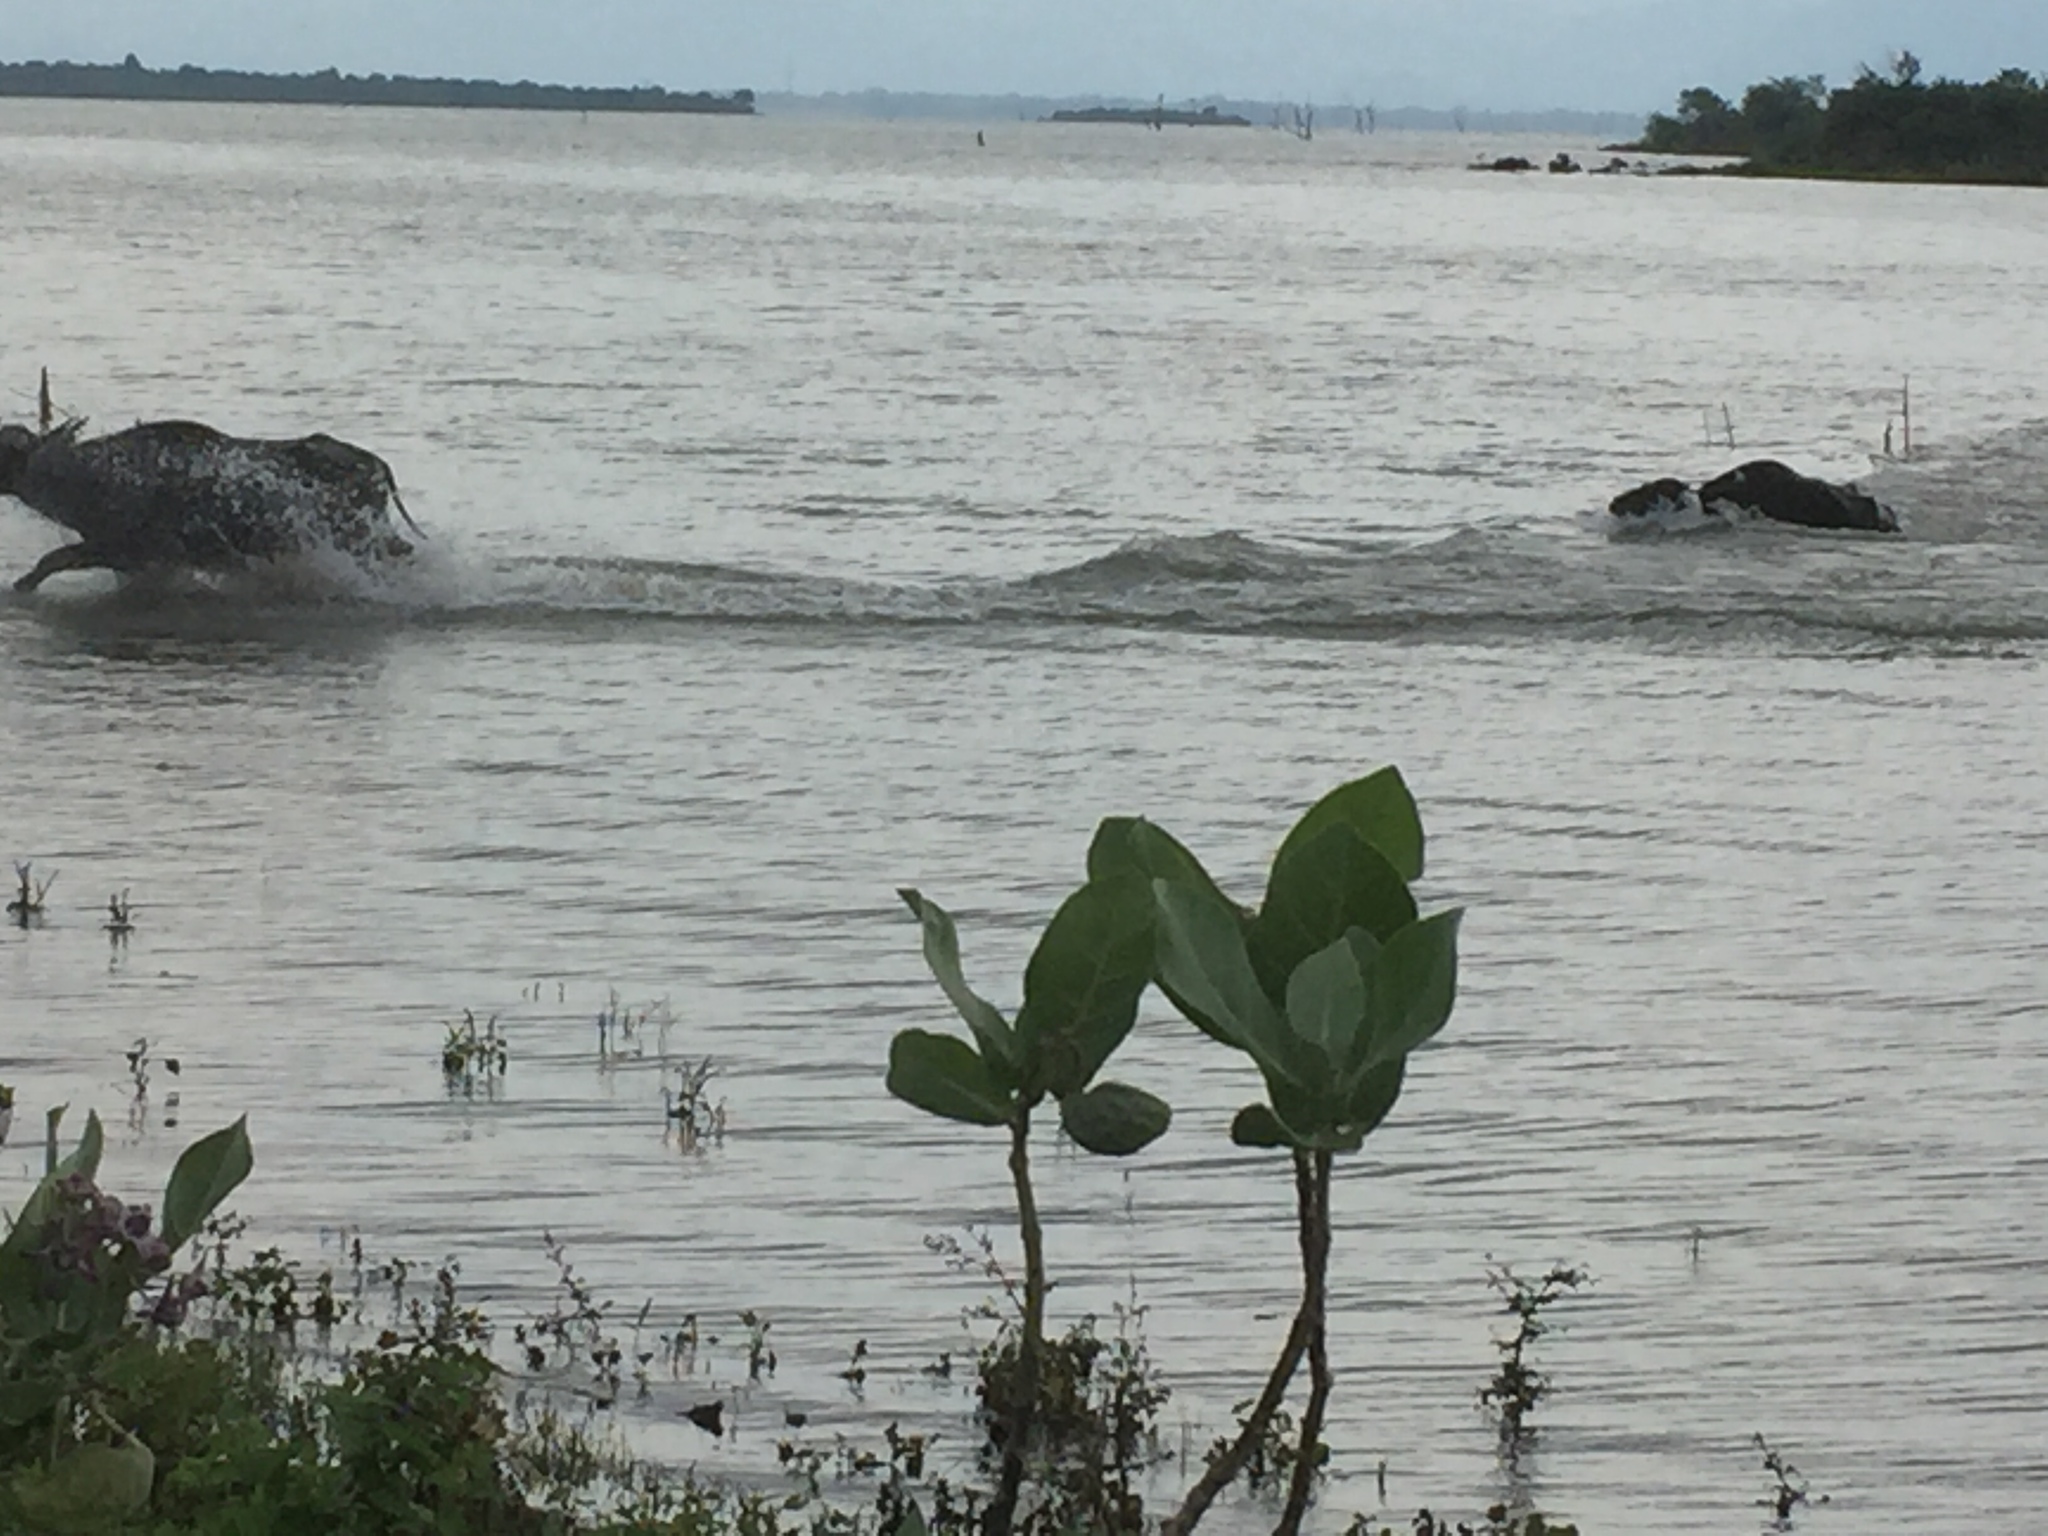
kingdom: Animalia
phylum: Chordata
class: Mammalia
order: Artiodactyla
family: Bovidae
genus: Bubalus
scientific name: Bubalus bubalis
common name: Water buffalo
